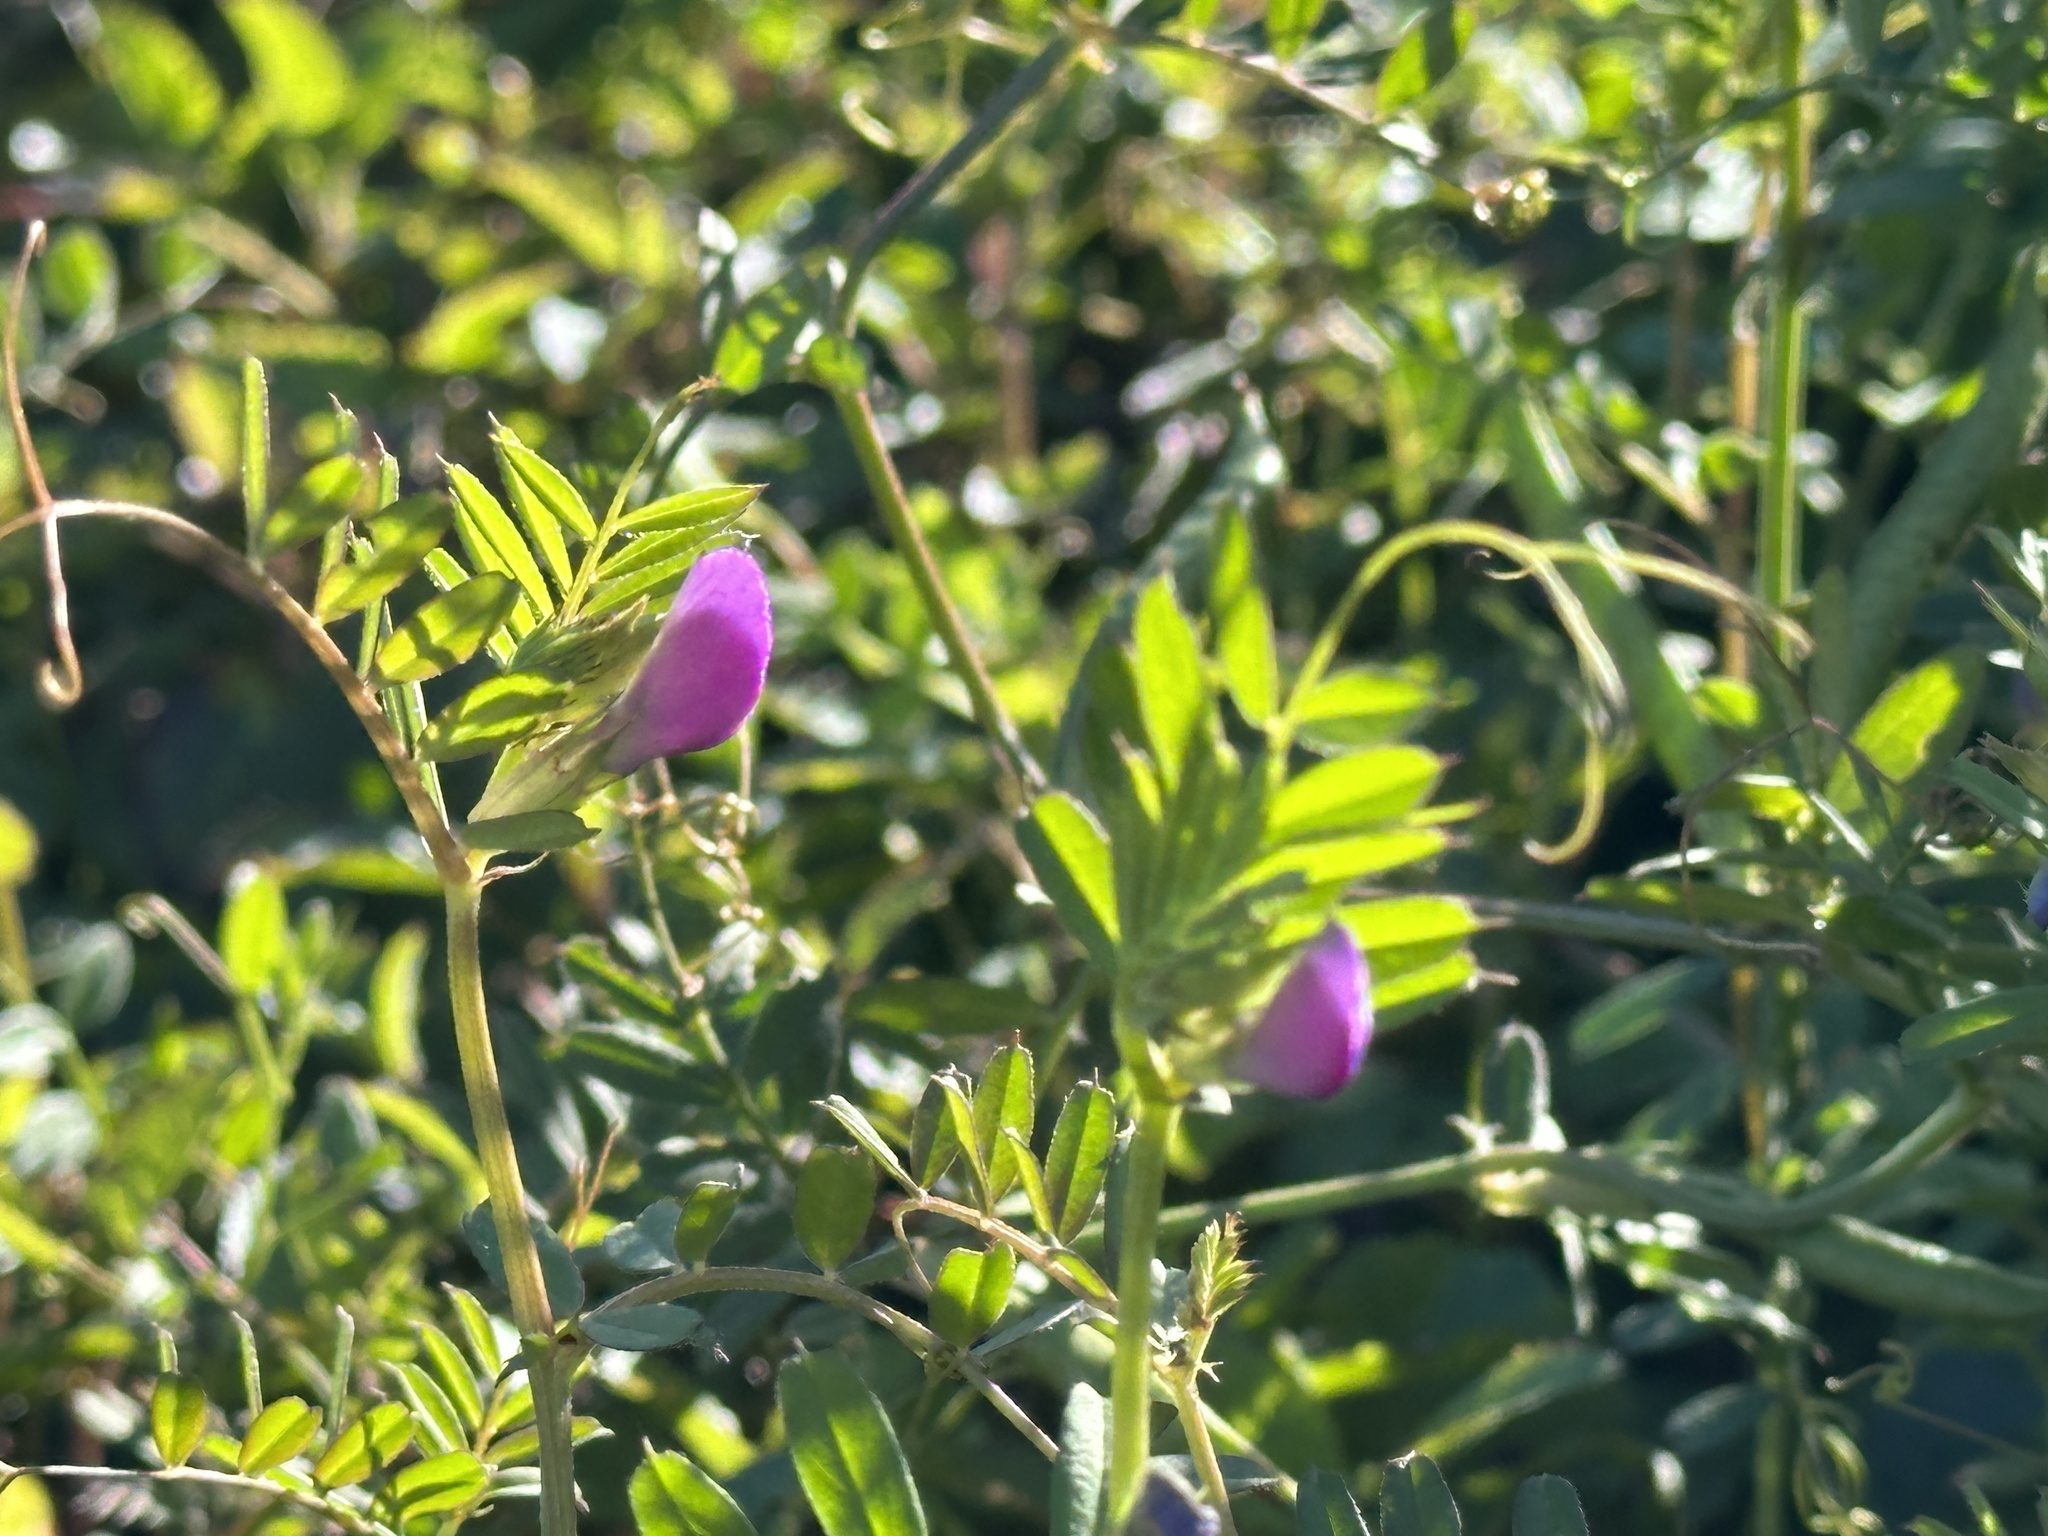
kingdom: Plantae
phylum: Tracheophyta
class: Magnoliopsida
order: Fabales
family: Fabaceae
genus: Vicia
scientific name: Vicia sativa
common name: Garden vetch
